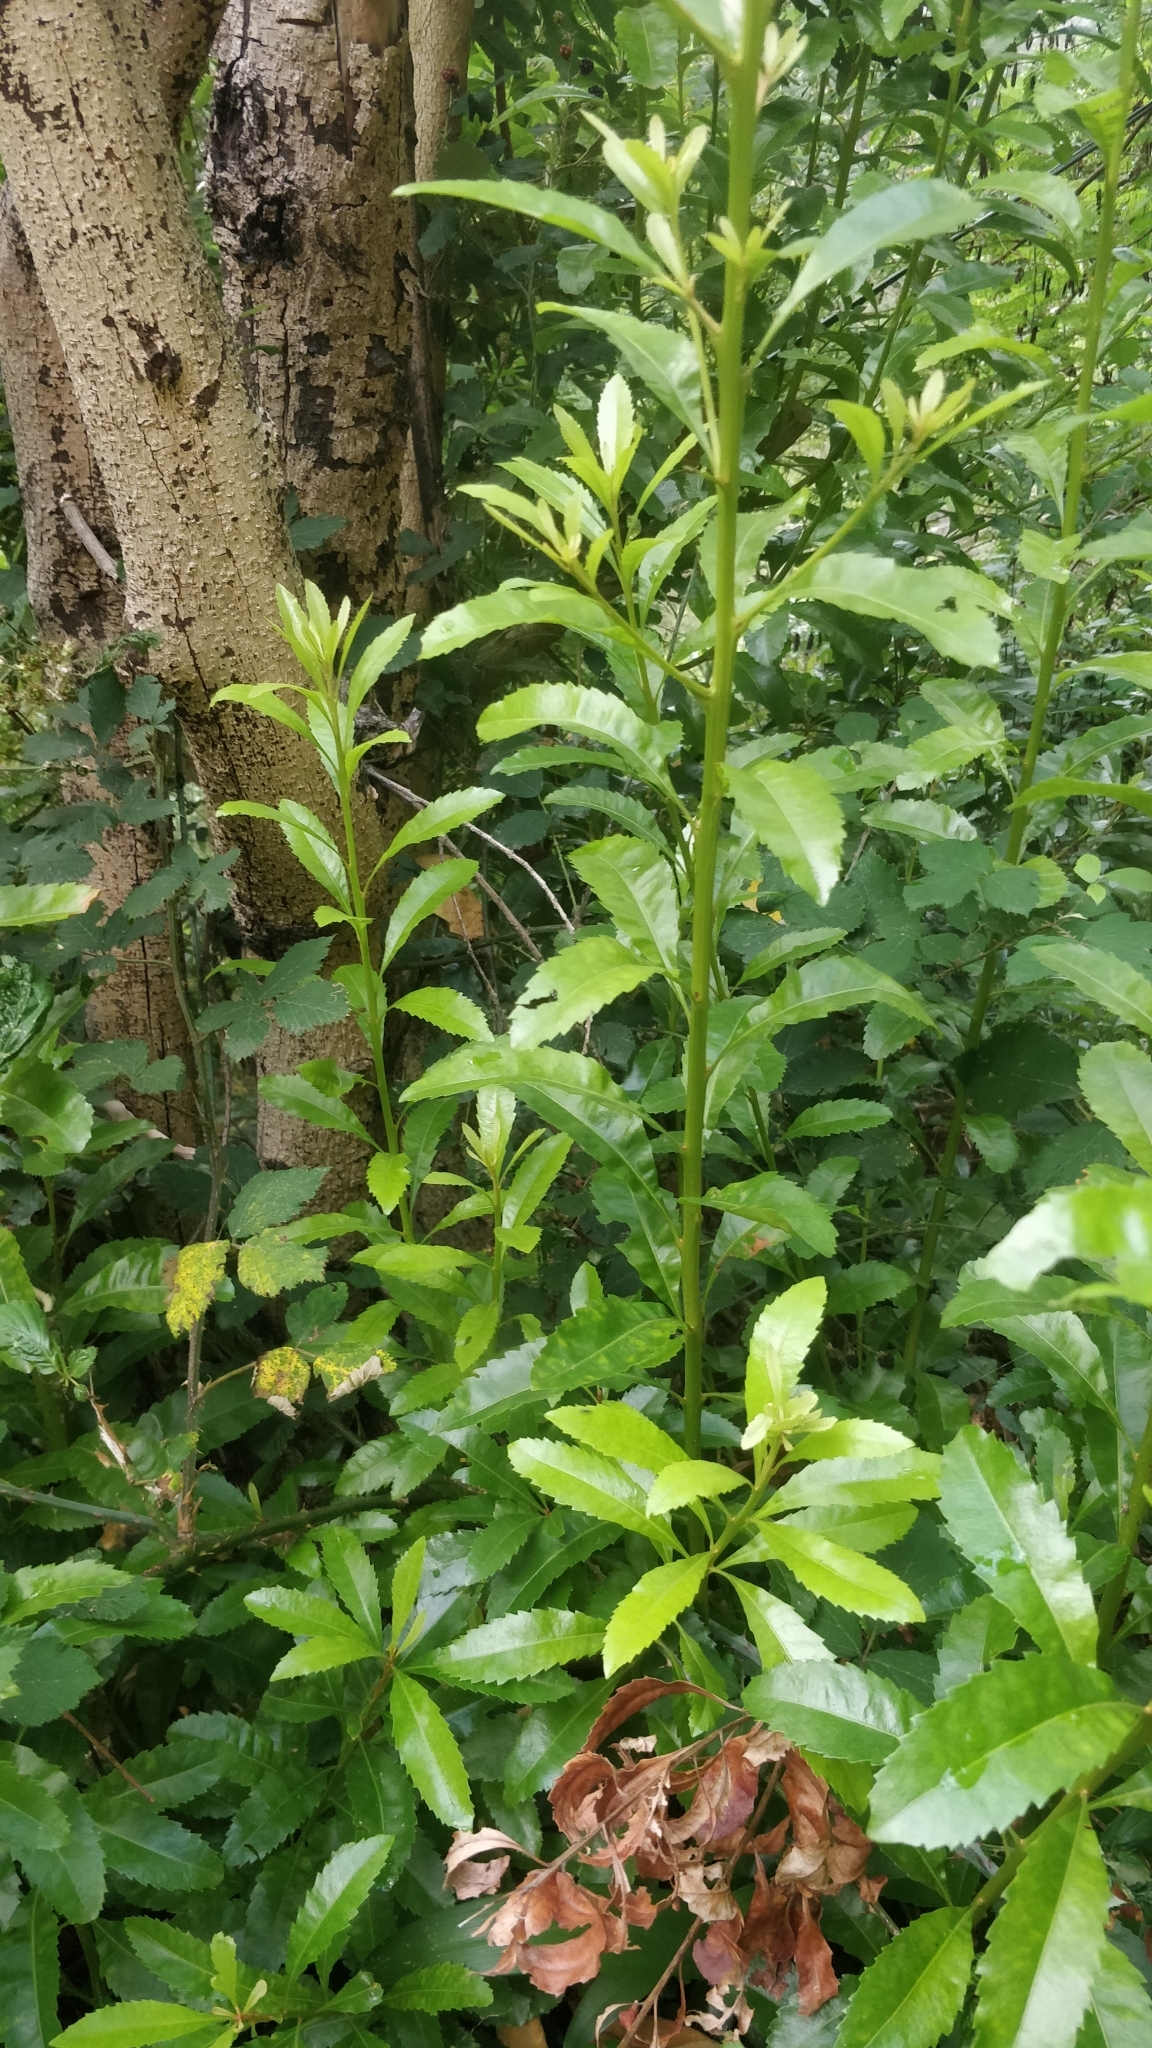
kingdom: Plantae
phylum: Tracheophyta
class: Magnoliopsida
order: Fagales
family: Myricaceae
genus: Morella
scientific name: Morella faya
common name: Firetree
